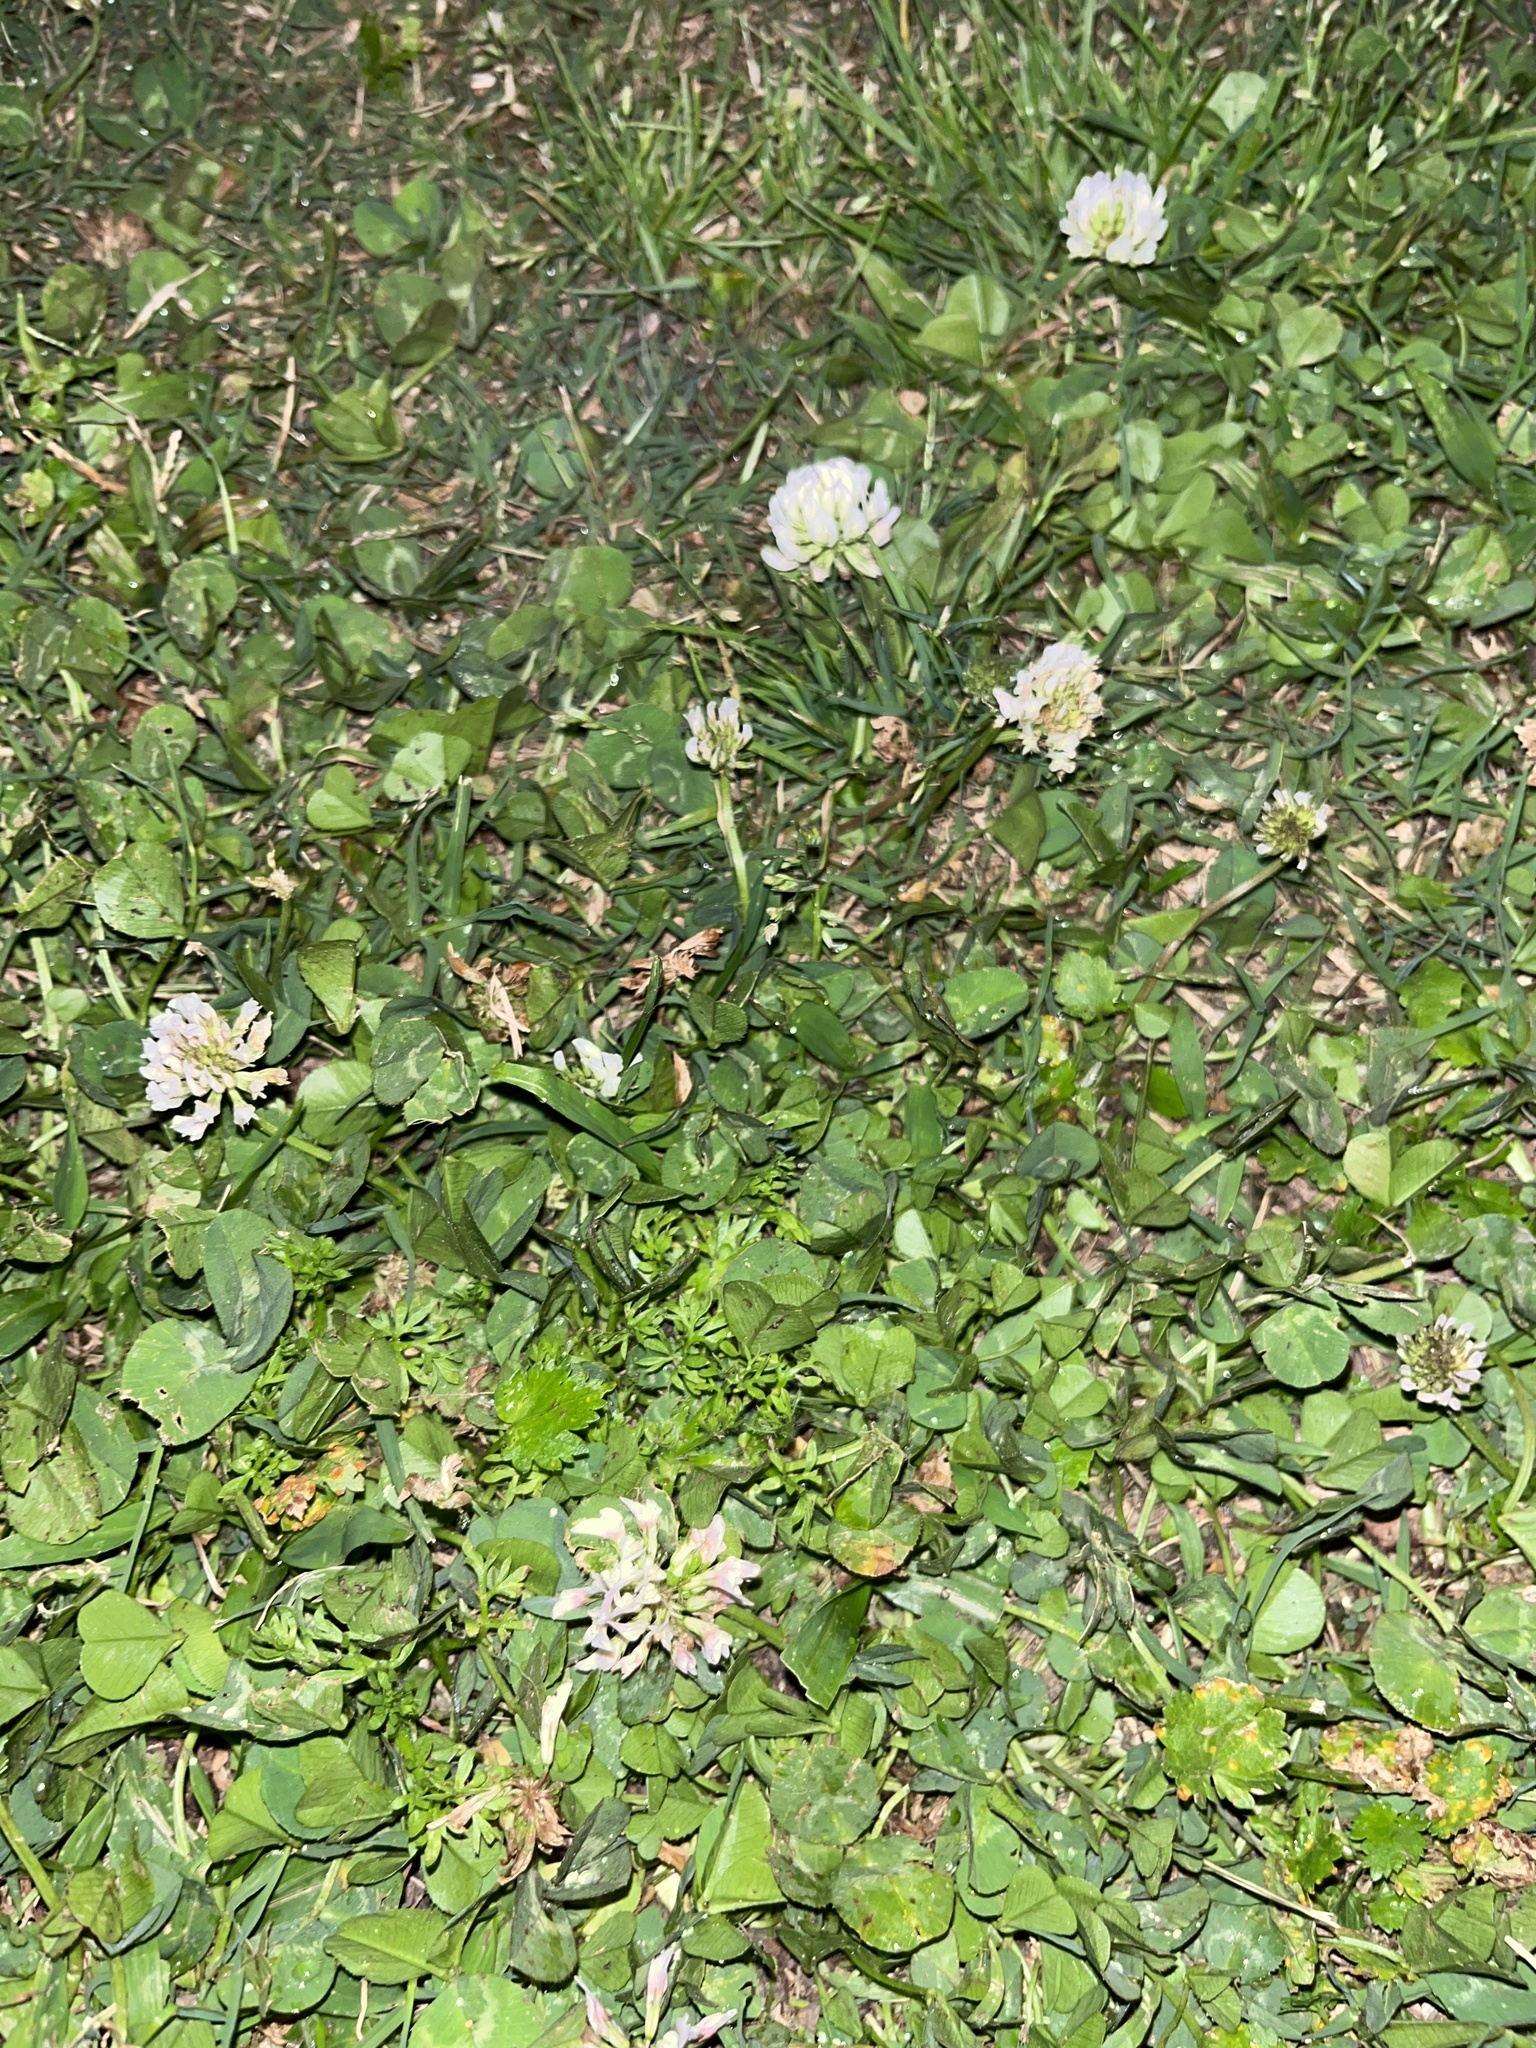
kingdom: Plantae
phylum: Tracheophyta
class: Magnoliopsida
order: Fabales
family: Fabaceae
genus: Trifolium
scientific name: Trifolium repens
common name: White clover
